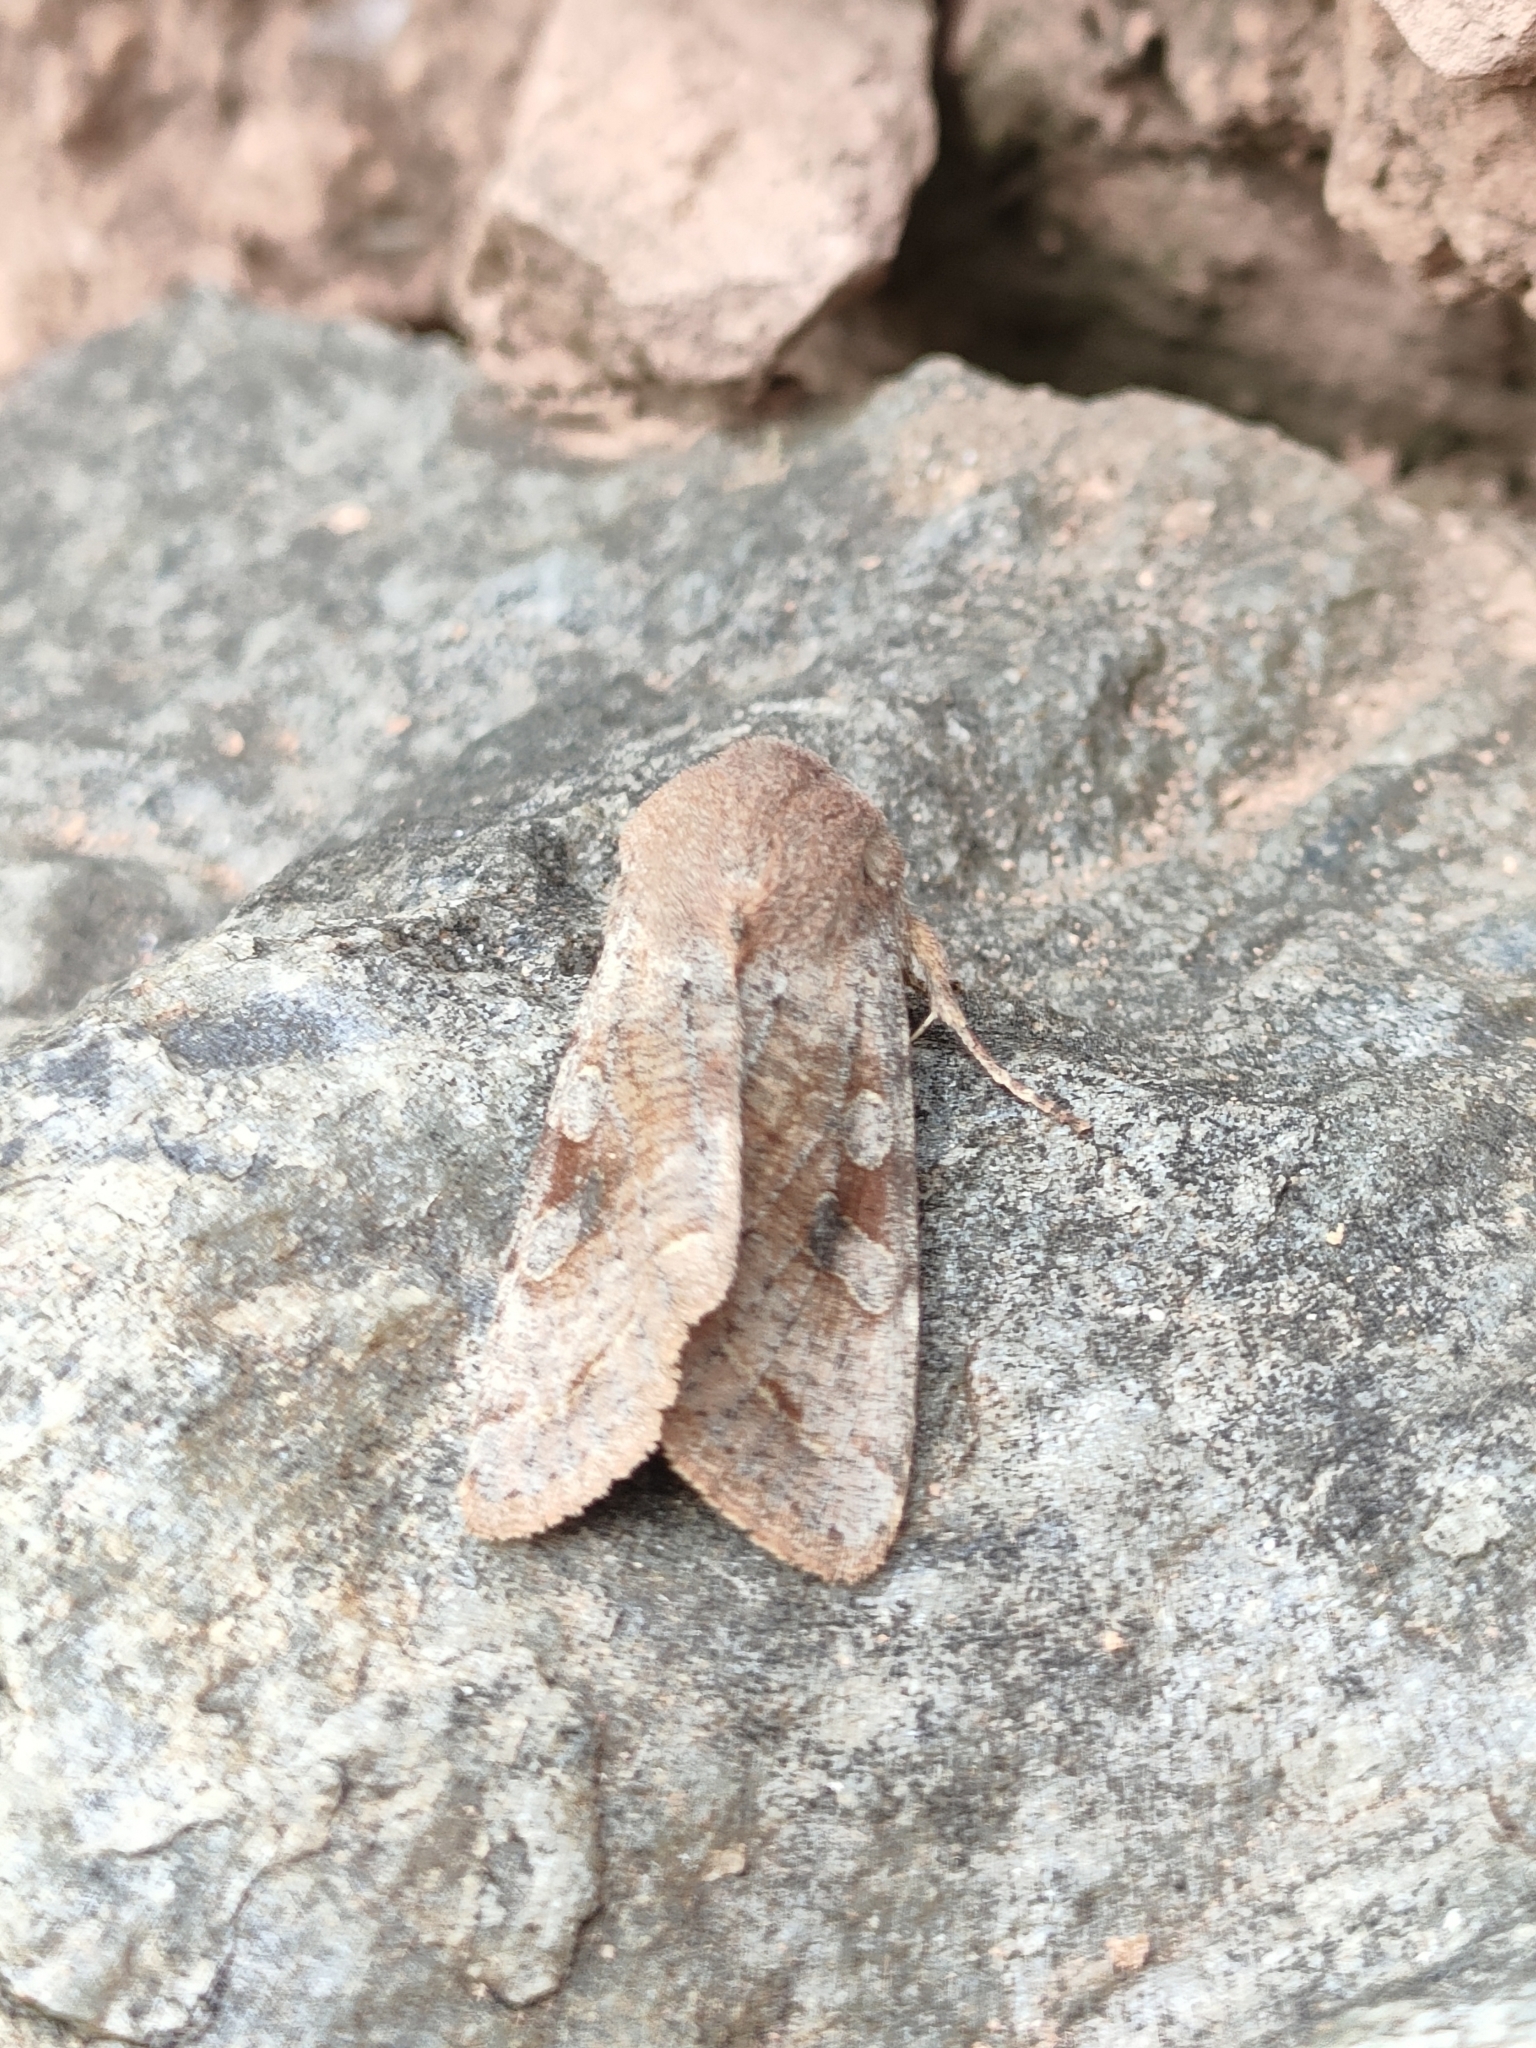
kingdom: Animalia
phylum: Arthropoda
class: Insecta
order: Lepidoptera
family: Noctuidae
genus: Orthosia
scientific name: Orthosia incerta
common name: Clouded drab
